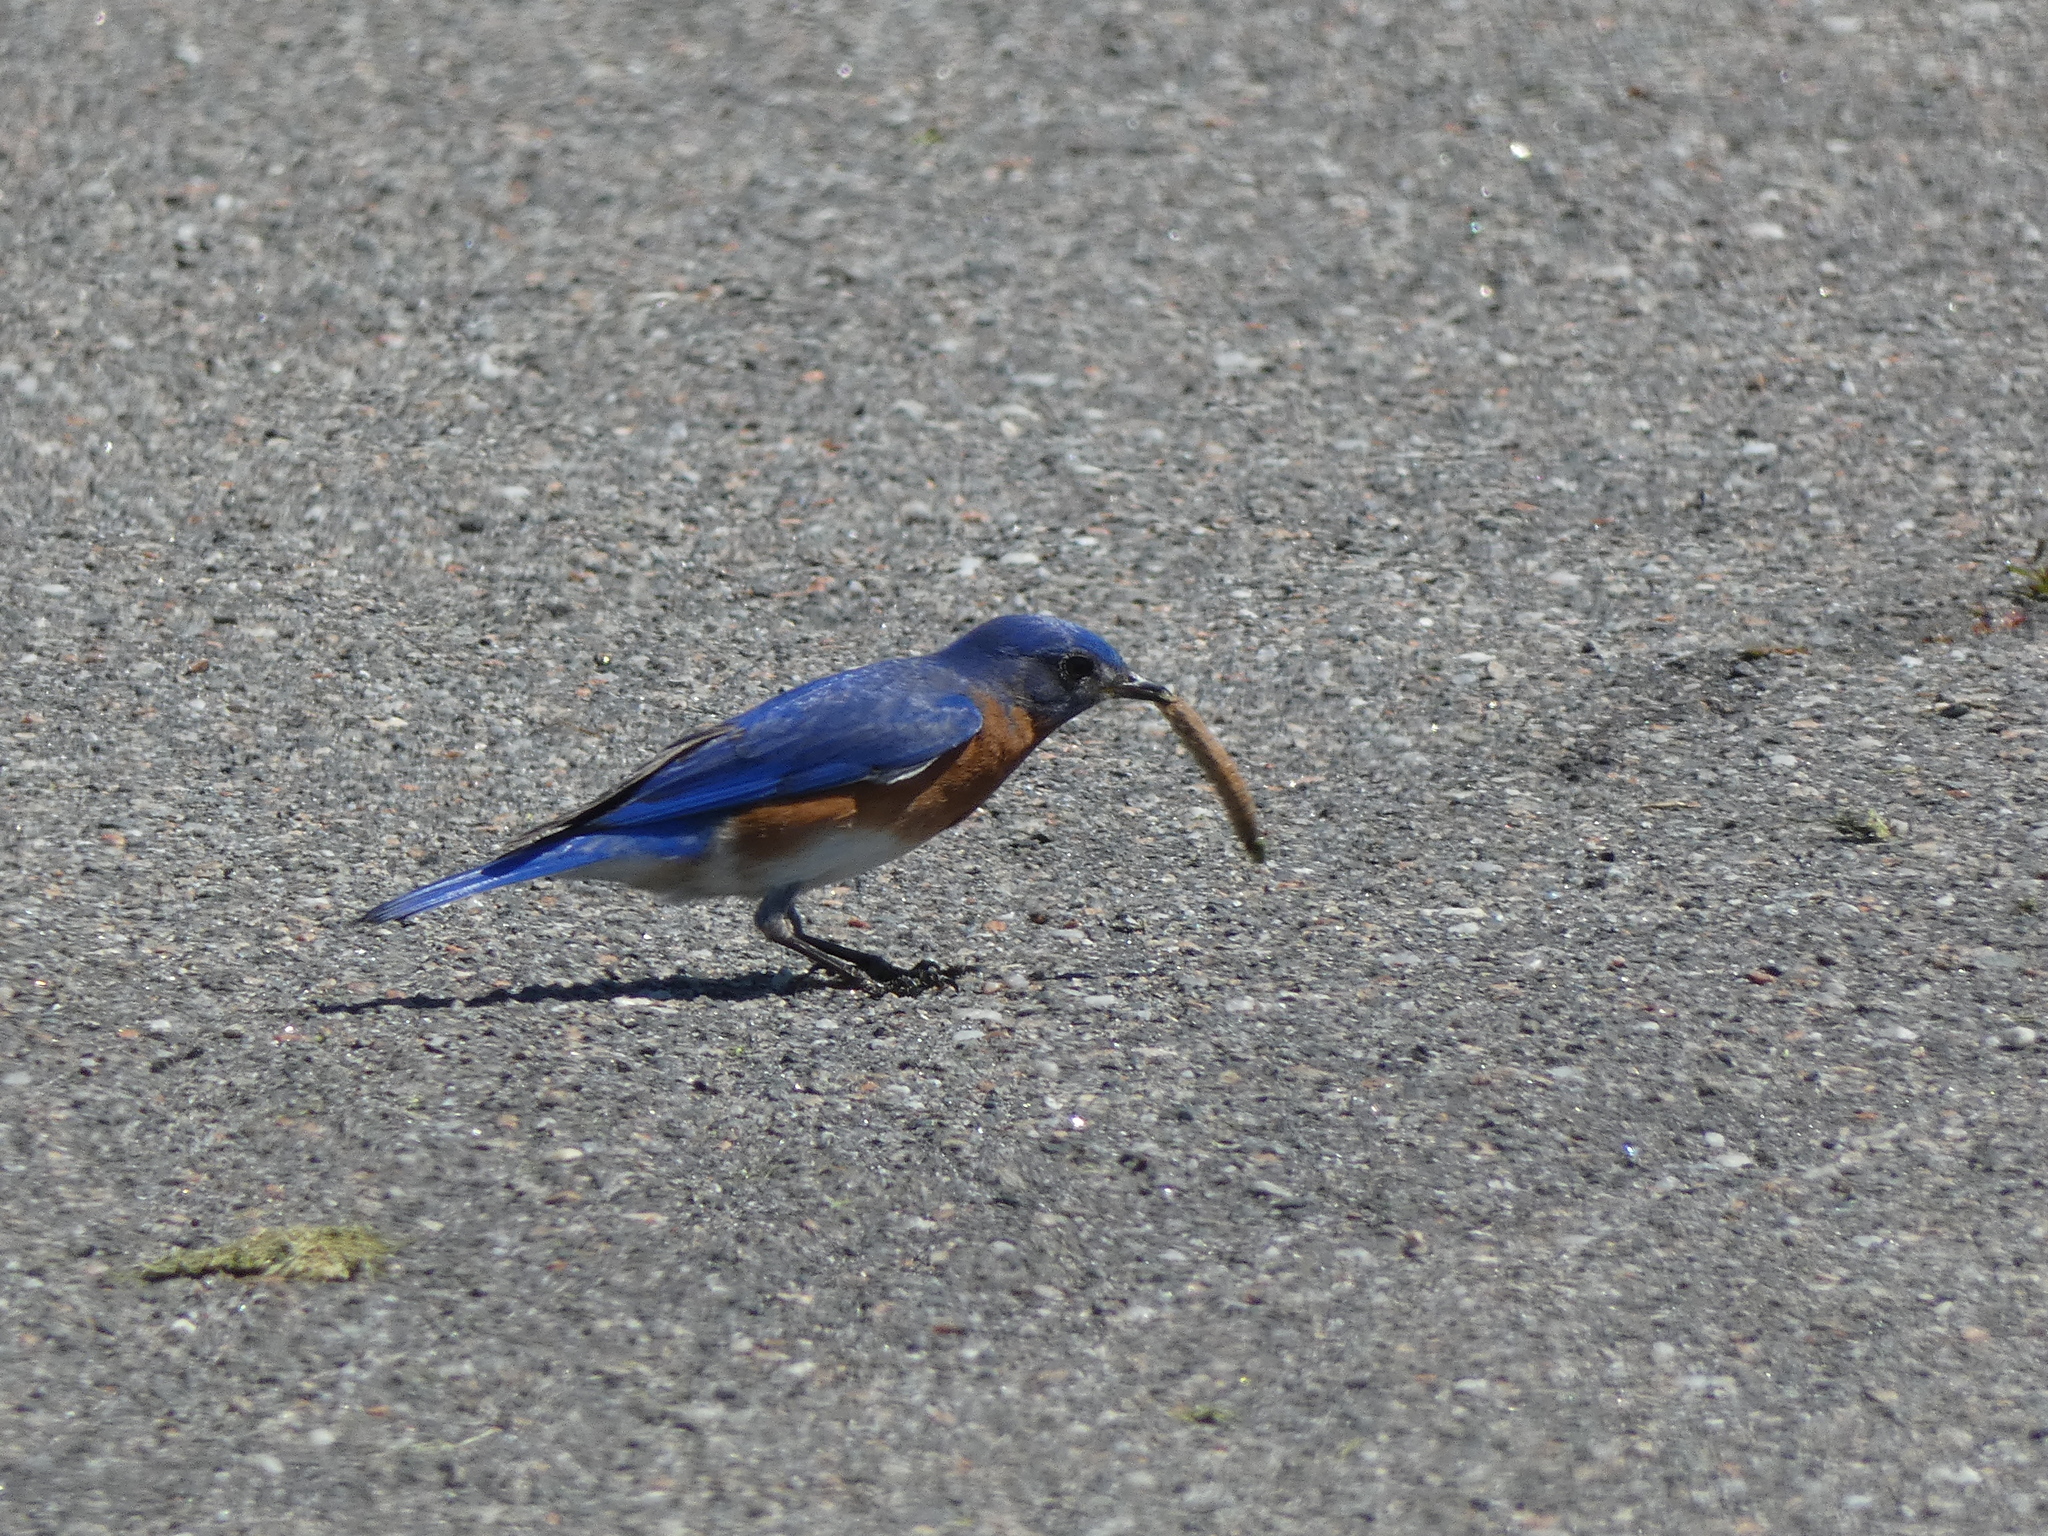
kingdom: Animalia
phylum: Chordata
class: Aves
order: Passeriformes
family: Turdidae
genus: Sialia
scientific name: Sialia sialis
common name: Eastern bluebird
